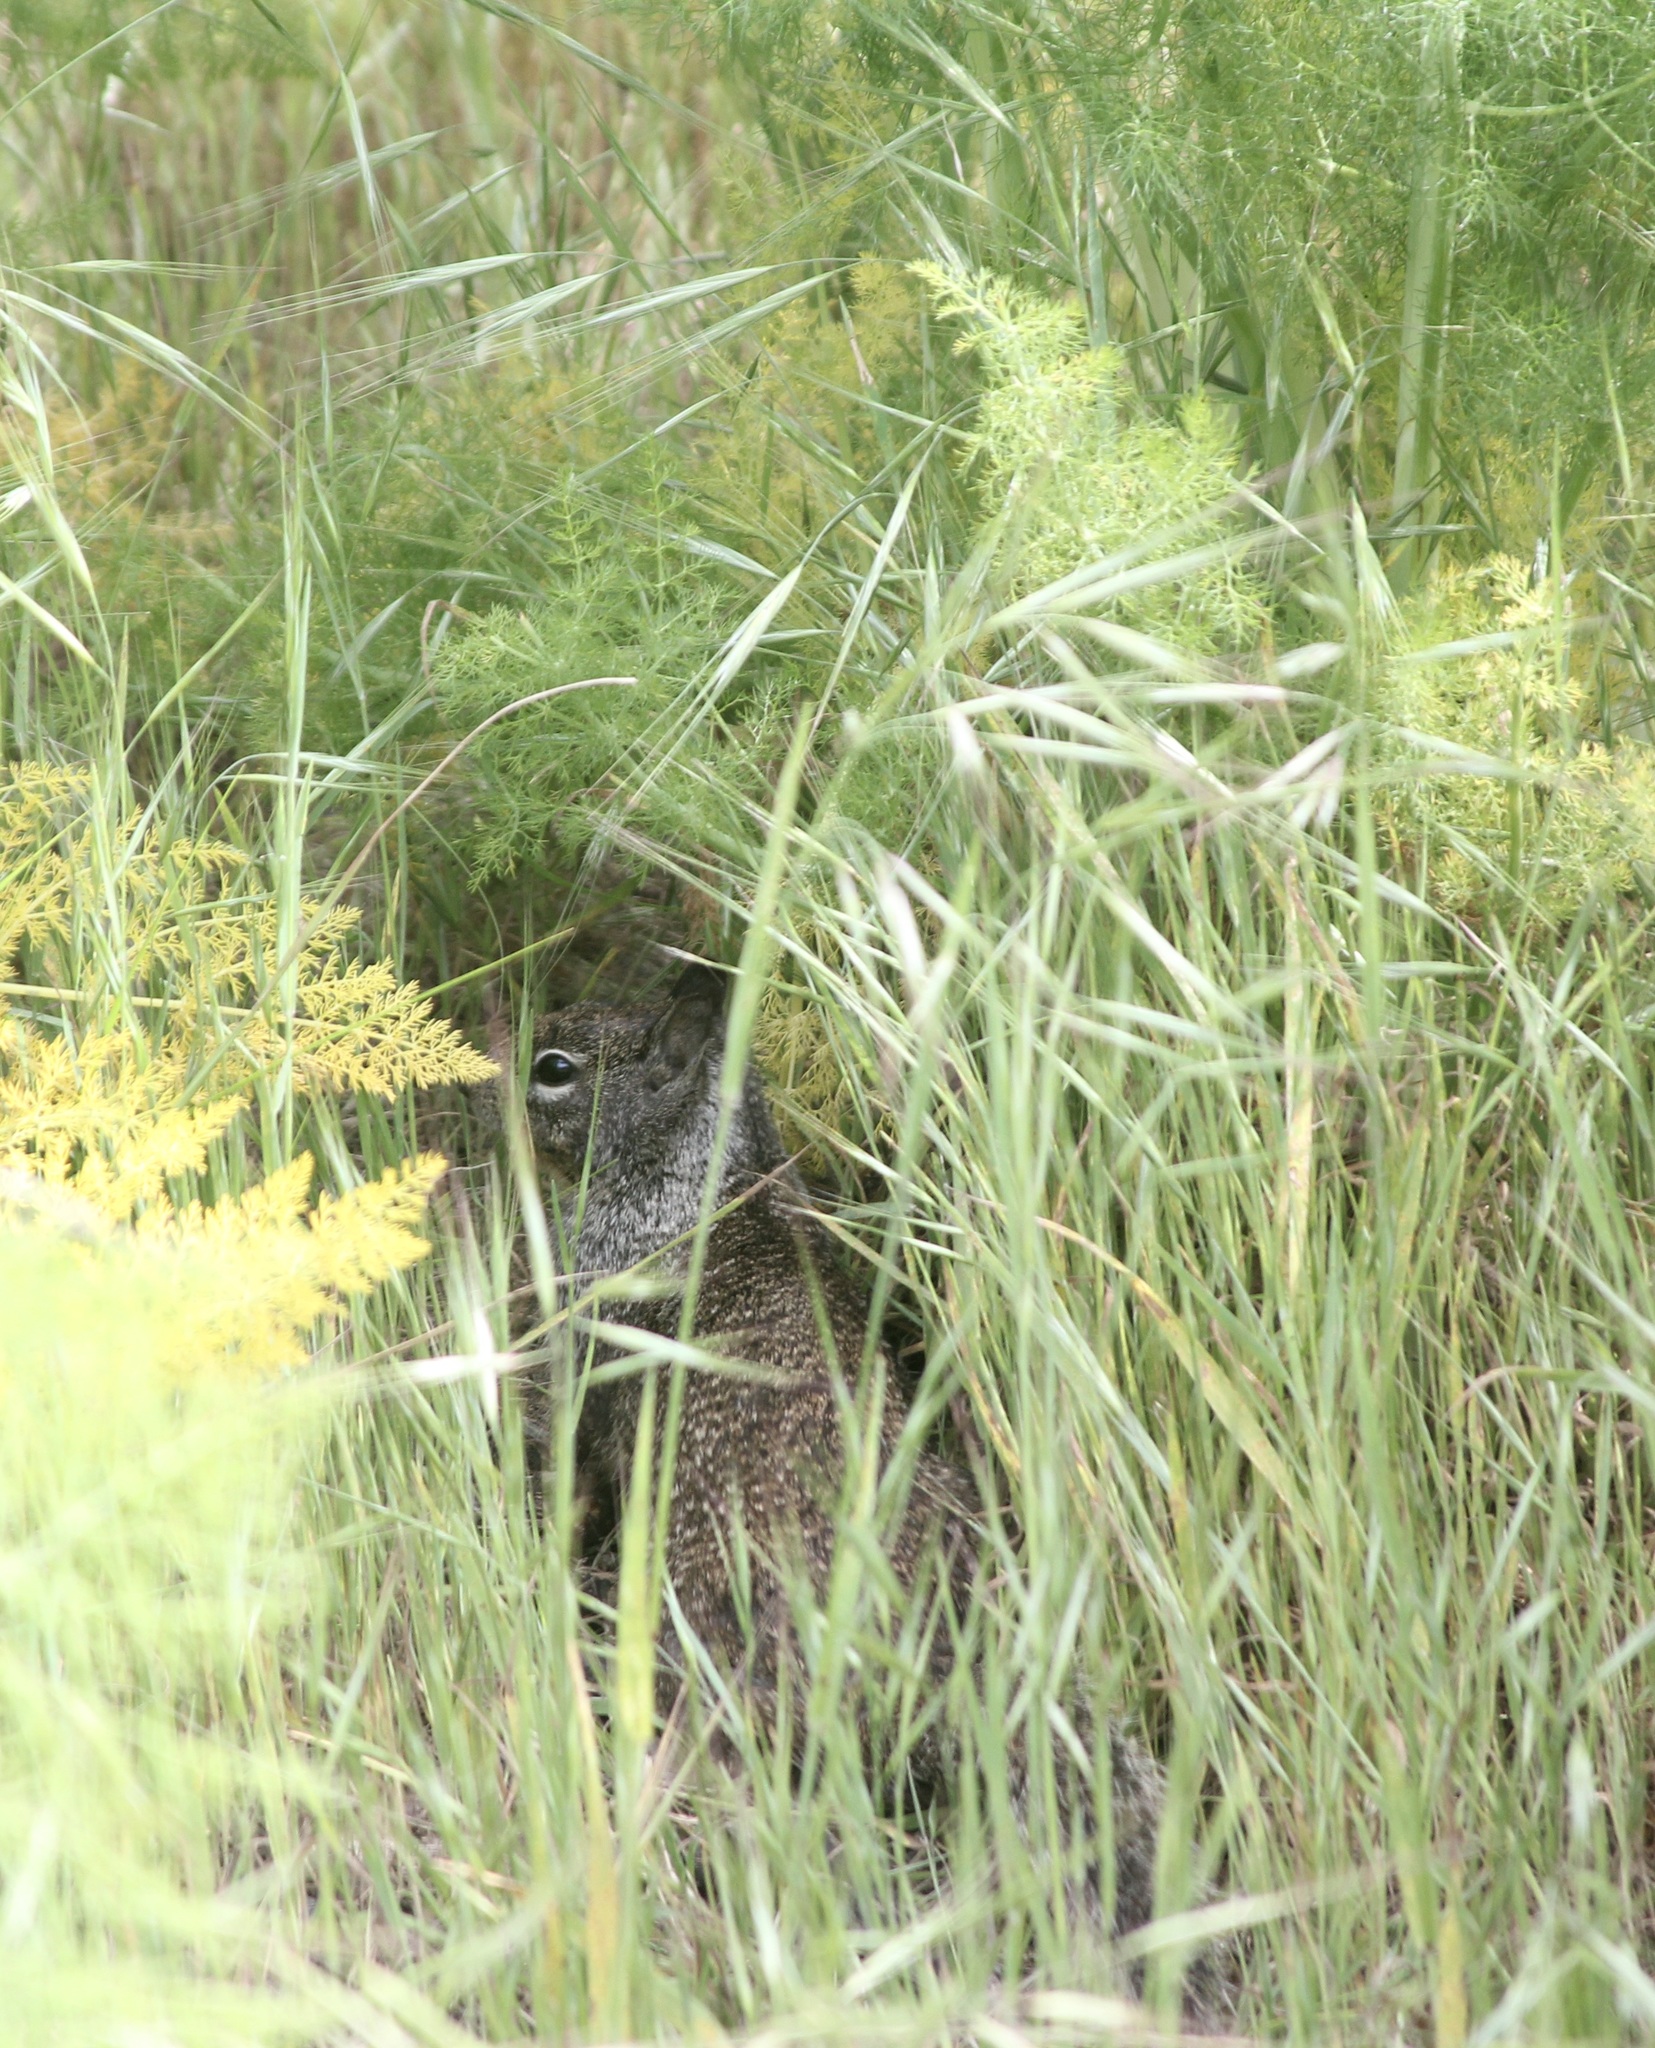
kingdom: Animalia
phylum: Chordata
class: Mammalia
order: Rodentia
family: Sciuridae
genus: Otospermophilus
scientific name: Otospermophilus beecheyi
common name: California ground squirrel
